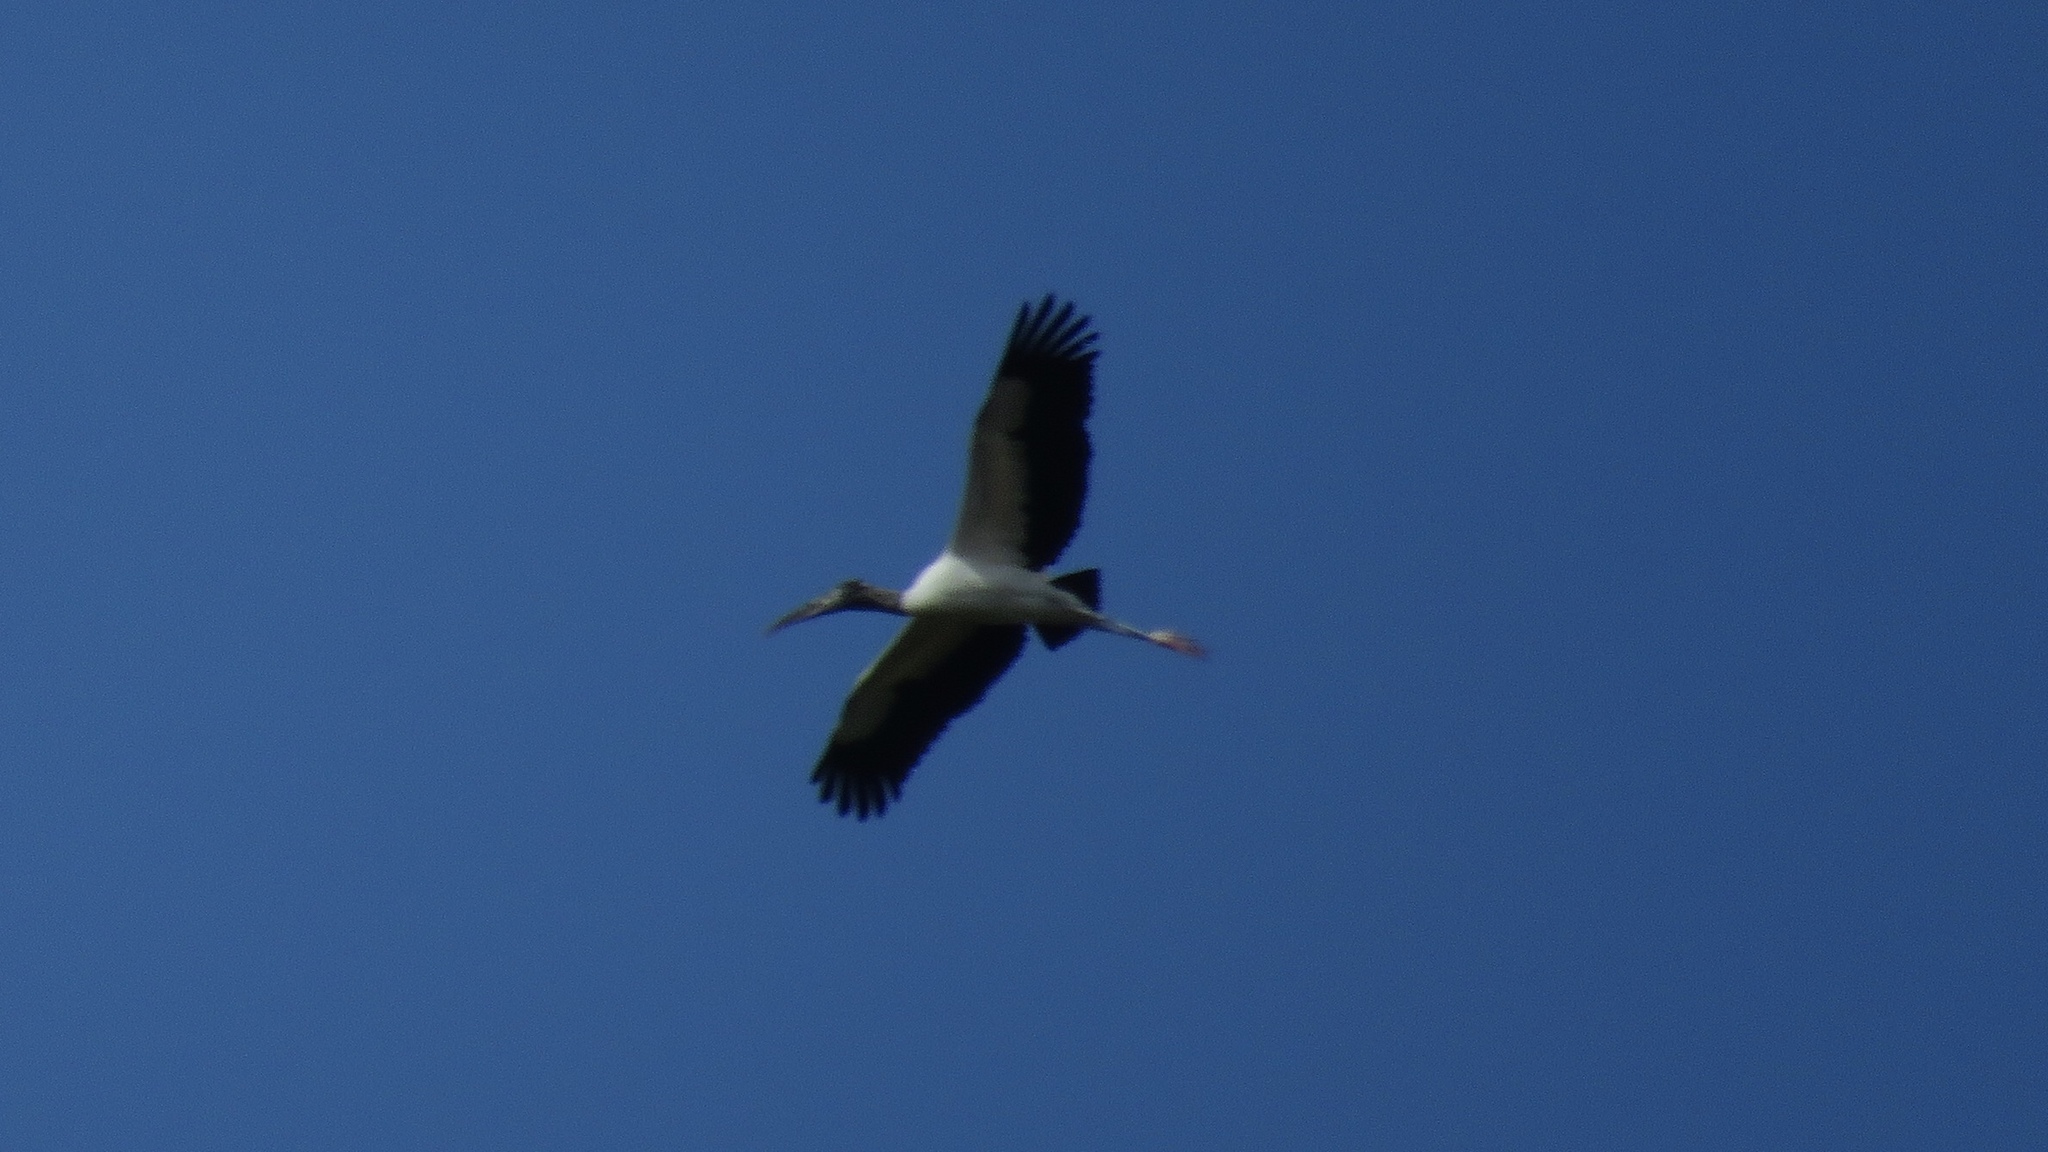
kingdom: Animalia
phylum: Chordata
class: Aves
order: Ciconiiformes
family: Ciconiidae
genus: Mycteria
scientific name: Mycteria americana
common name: Wood stork
